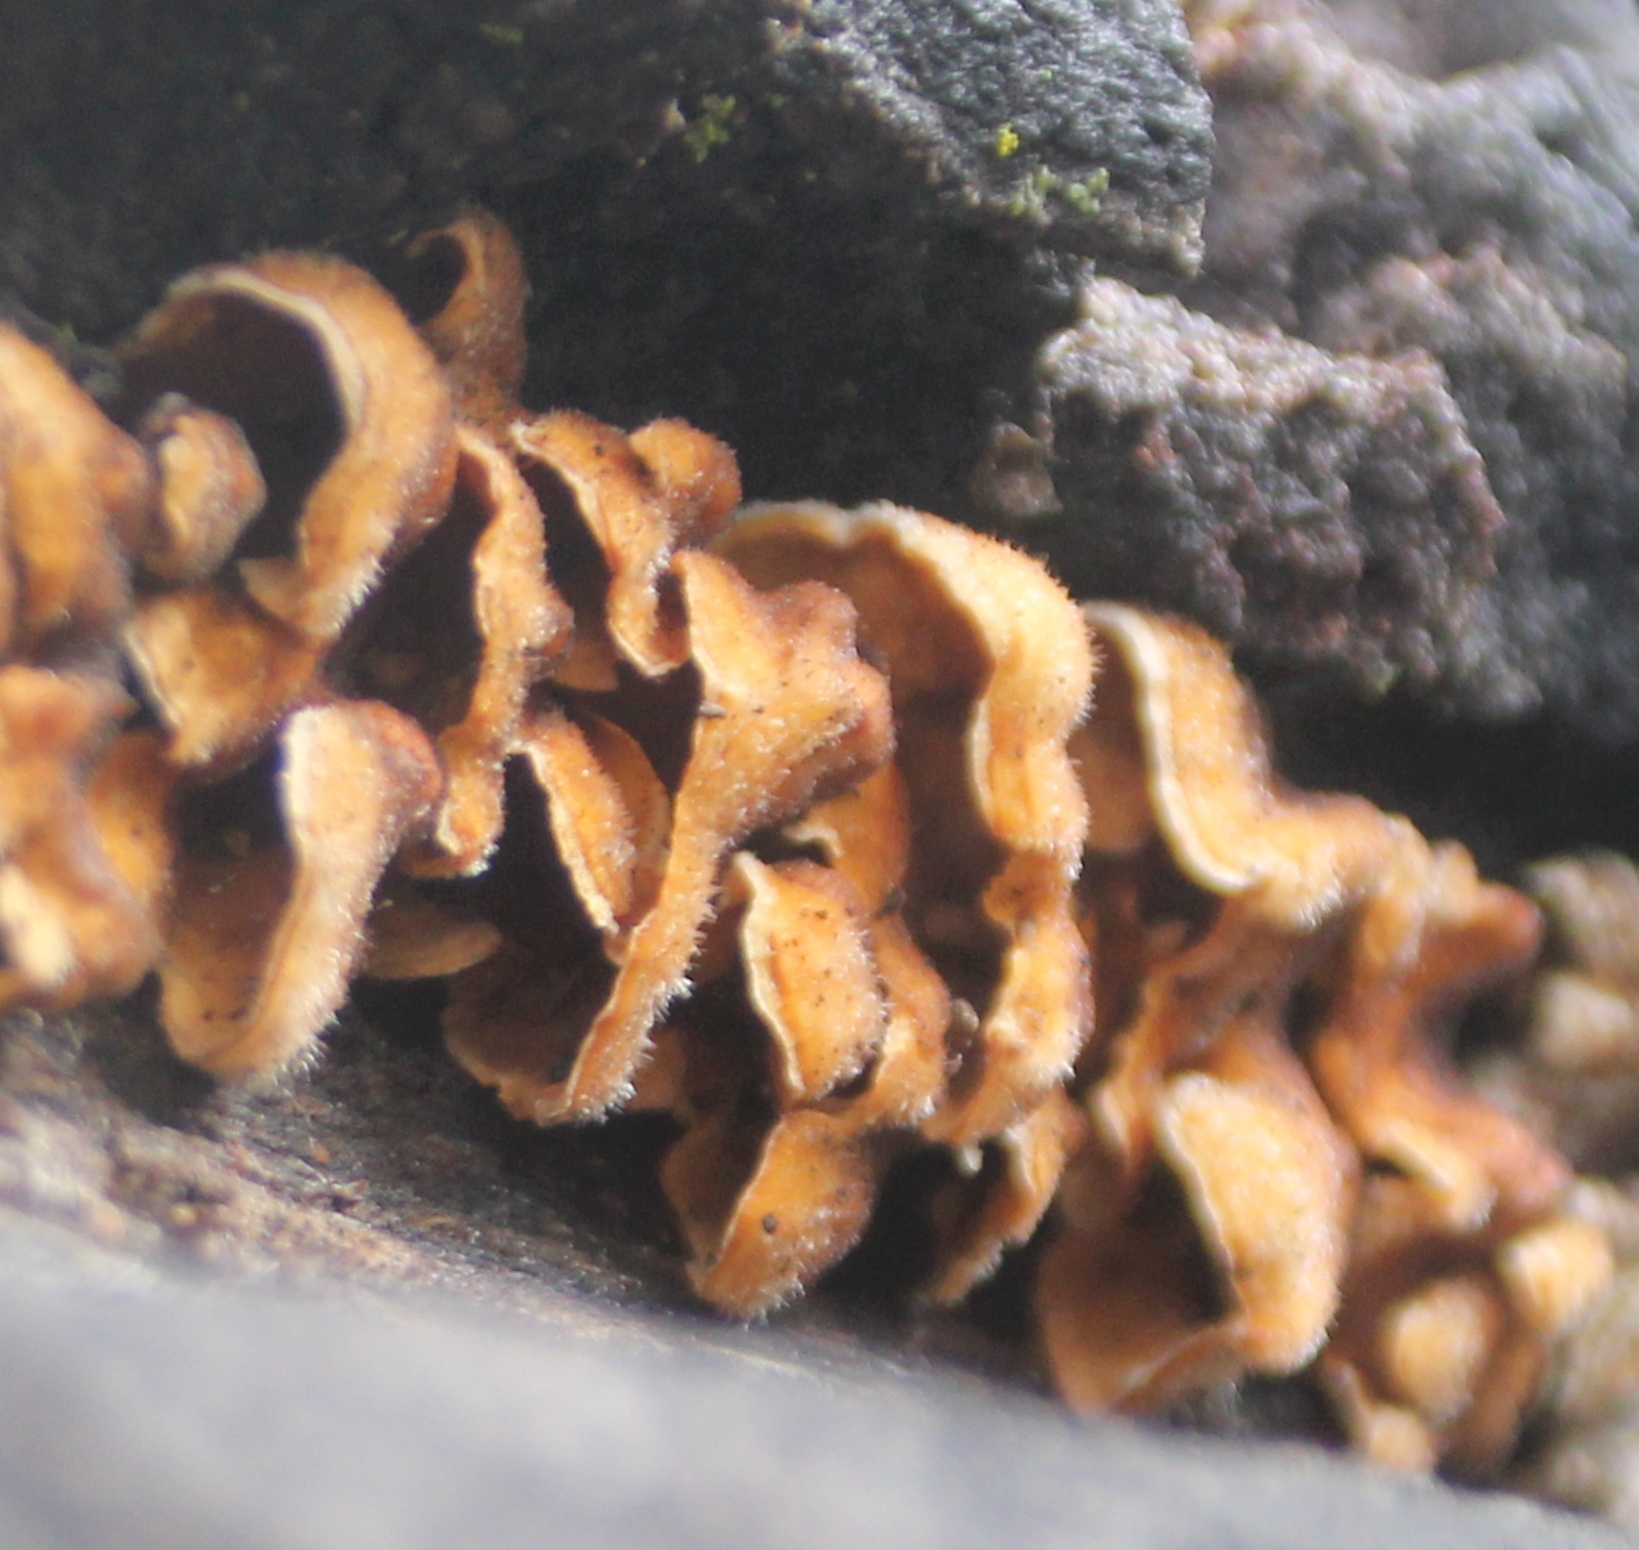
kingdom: Fungi
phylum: Basidiomycota
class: Agaricomycetes
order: Russulales
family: Stereaceae
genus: Stereum
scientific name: Stereum hirsutum
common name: Hairy curtain crust
